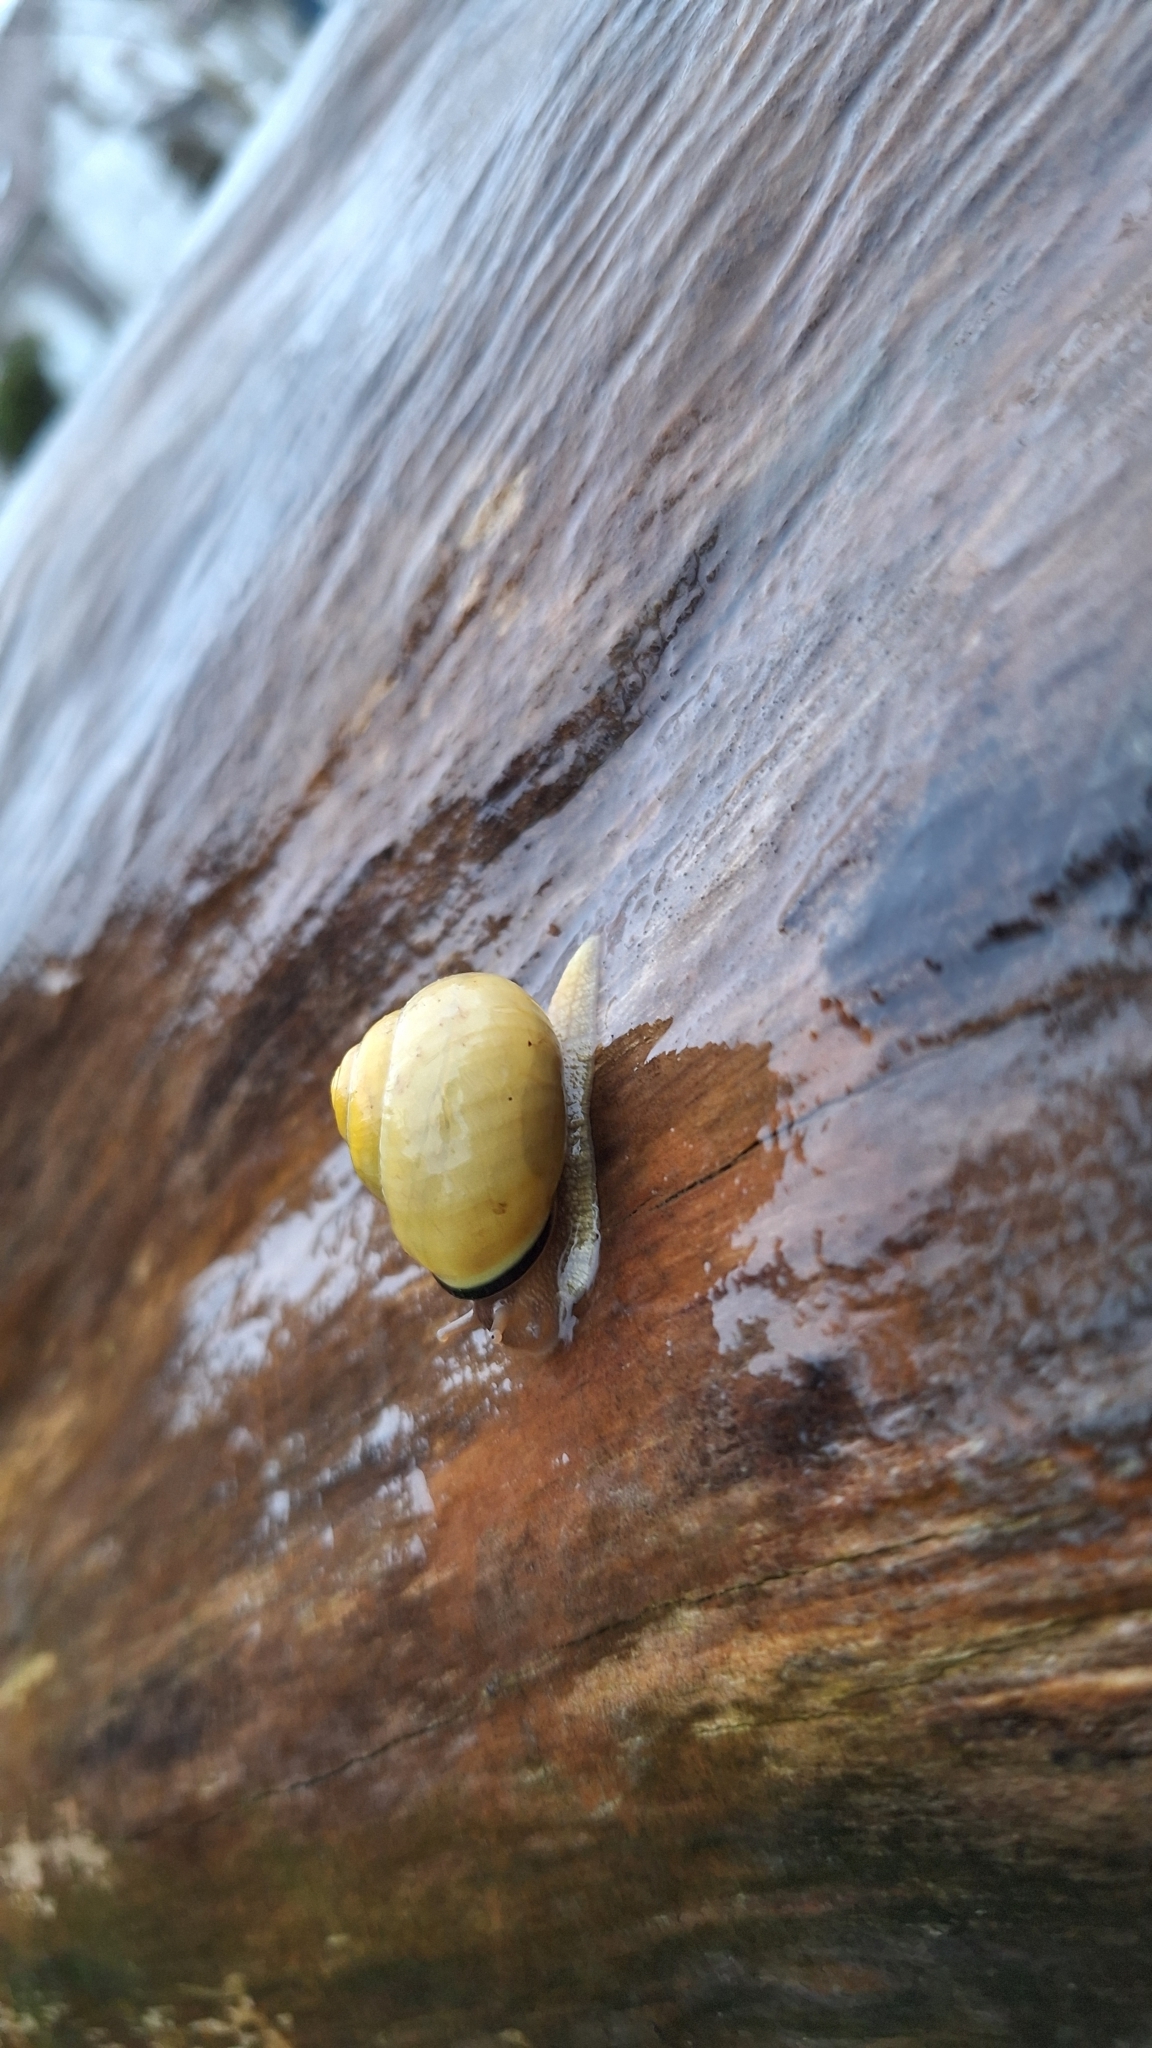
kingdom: Animalia
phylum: Mollusca
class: Gastropoda
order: Stylommatophora
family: Helicidae
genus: Cepaea
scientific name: Cepaea nemoralis
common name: Grovesnail
